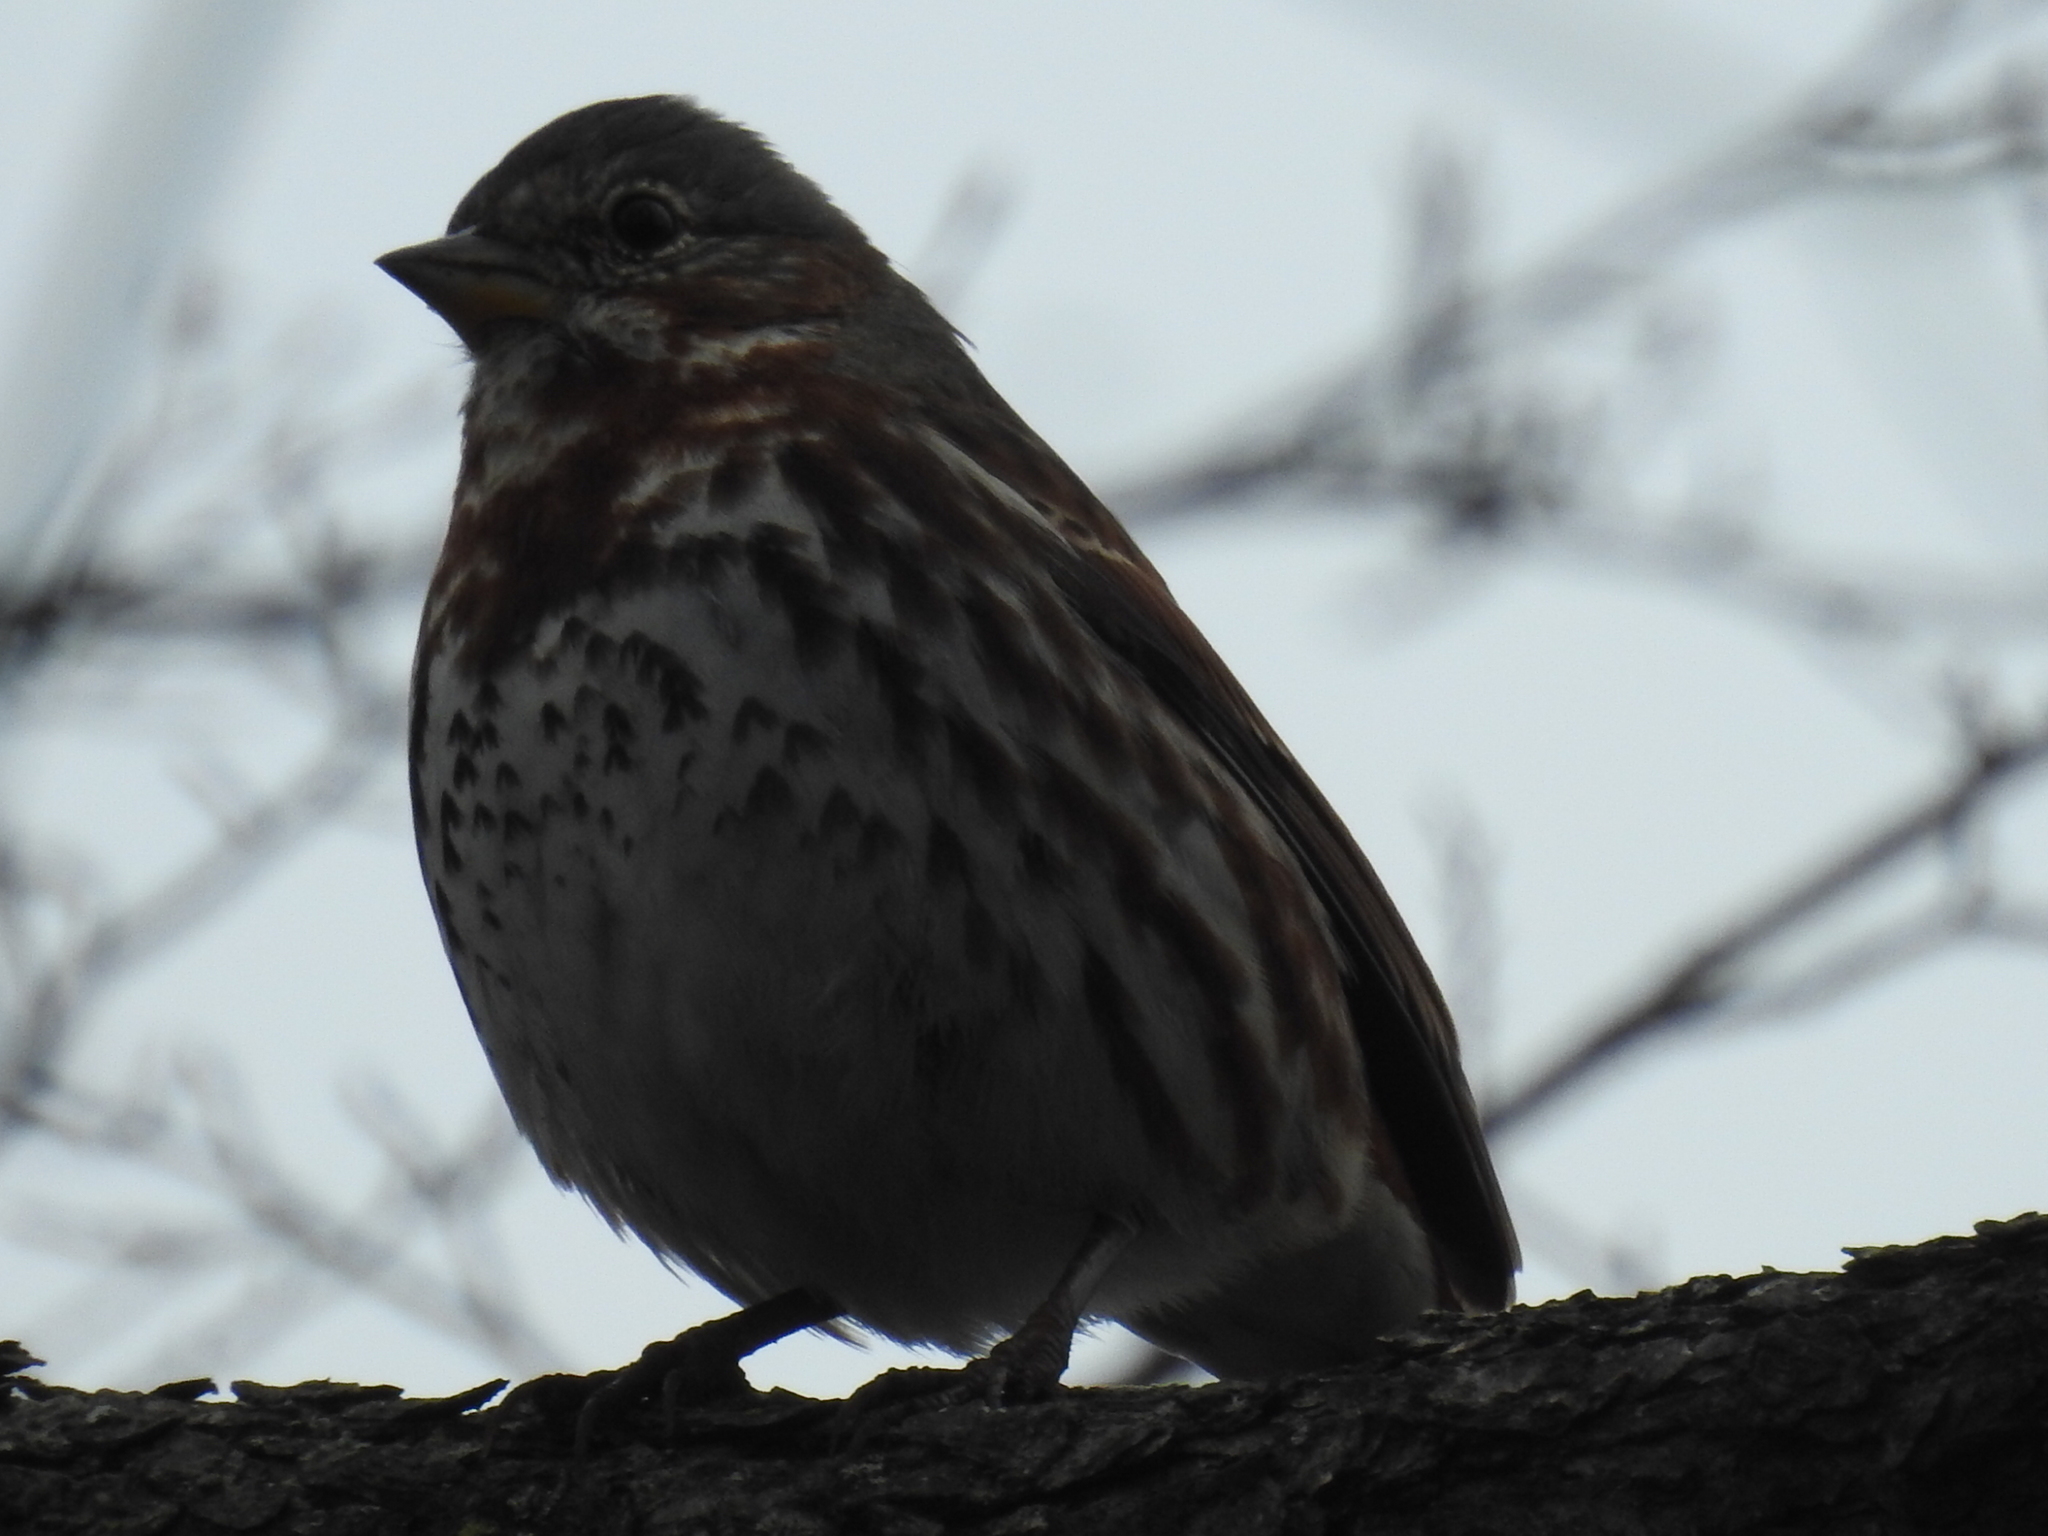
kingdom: Animalia
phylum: Chordata
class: Aves
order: Passeriformes
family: Passerellidae
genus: Passerella
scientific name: Passerella iliaca
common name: Fox sparrow
